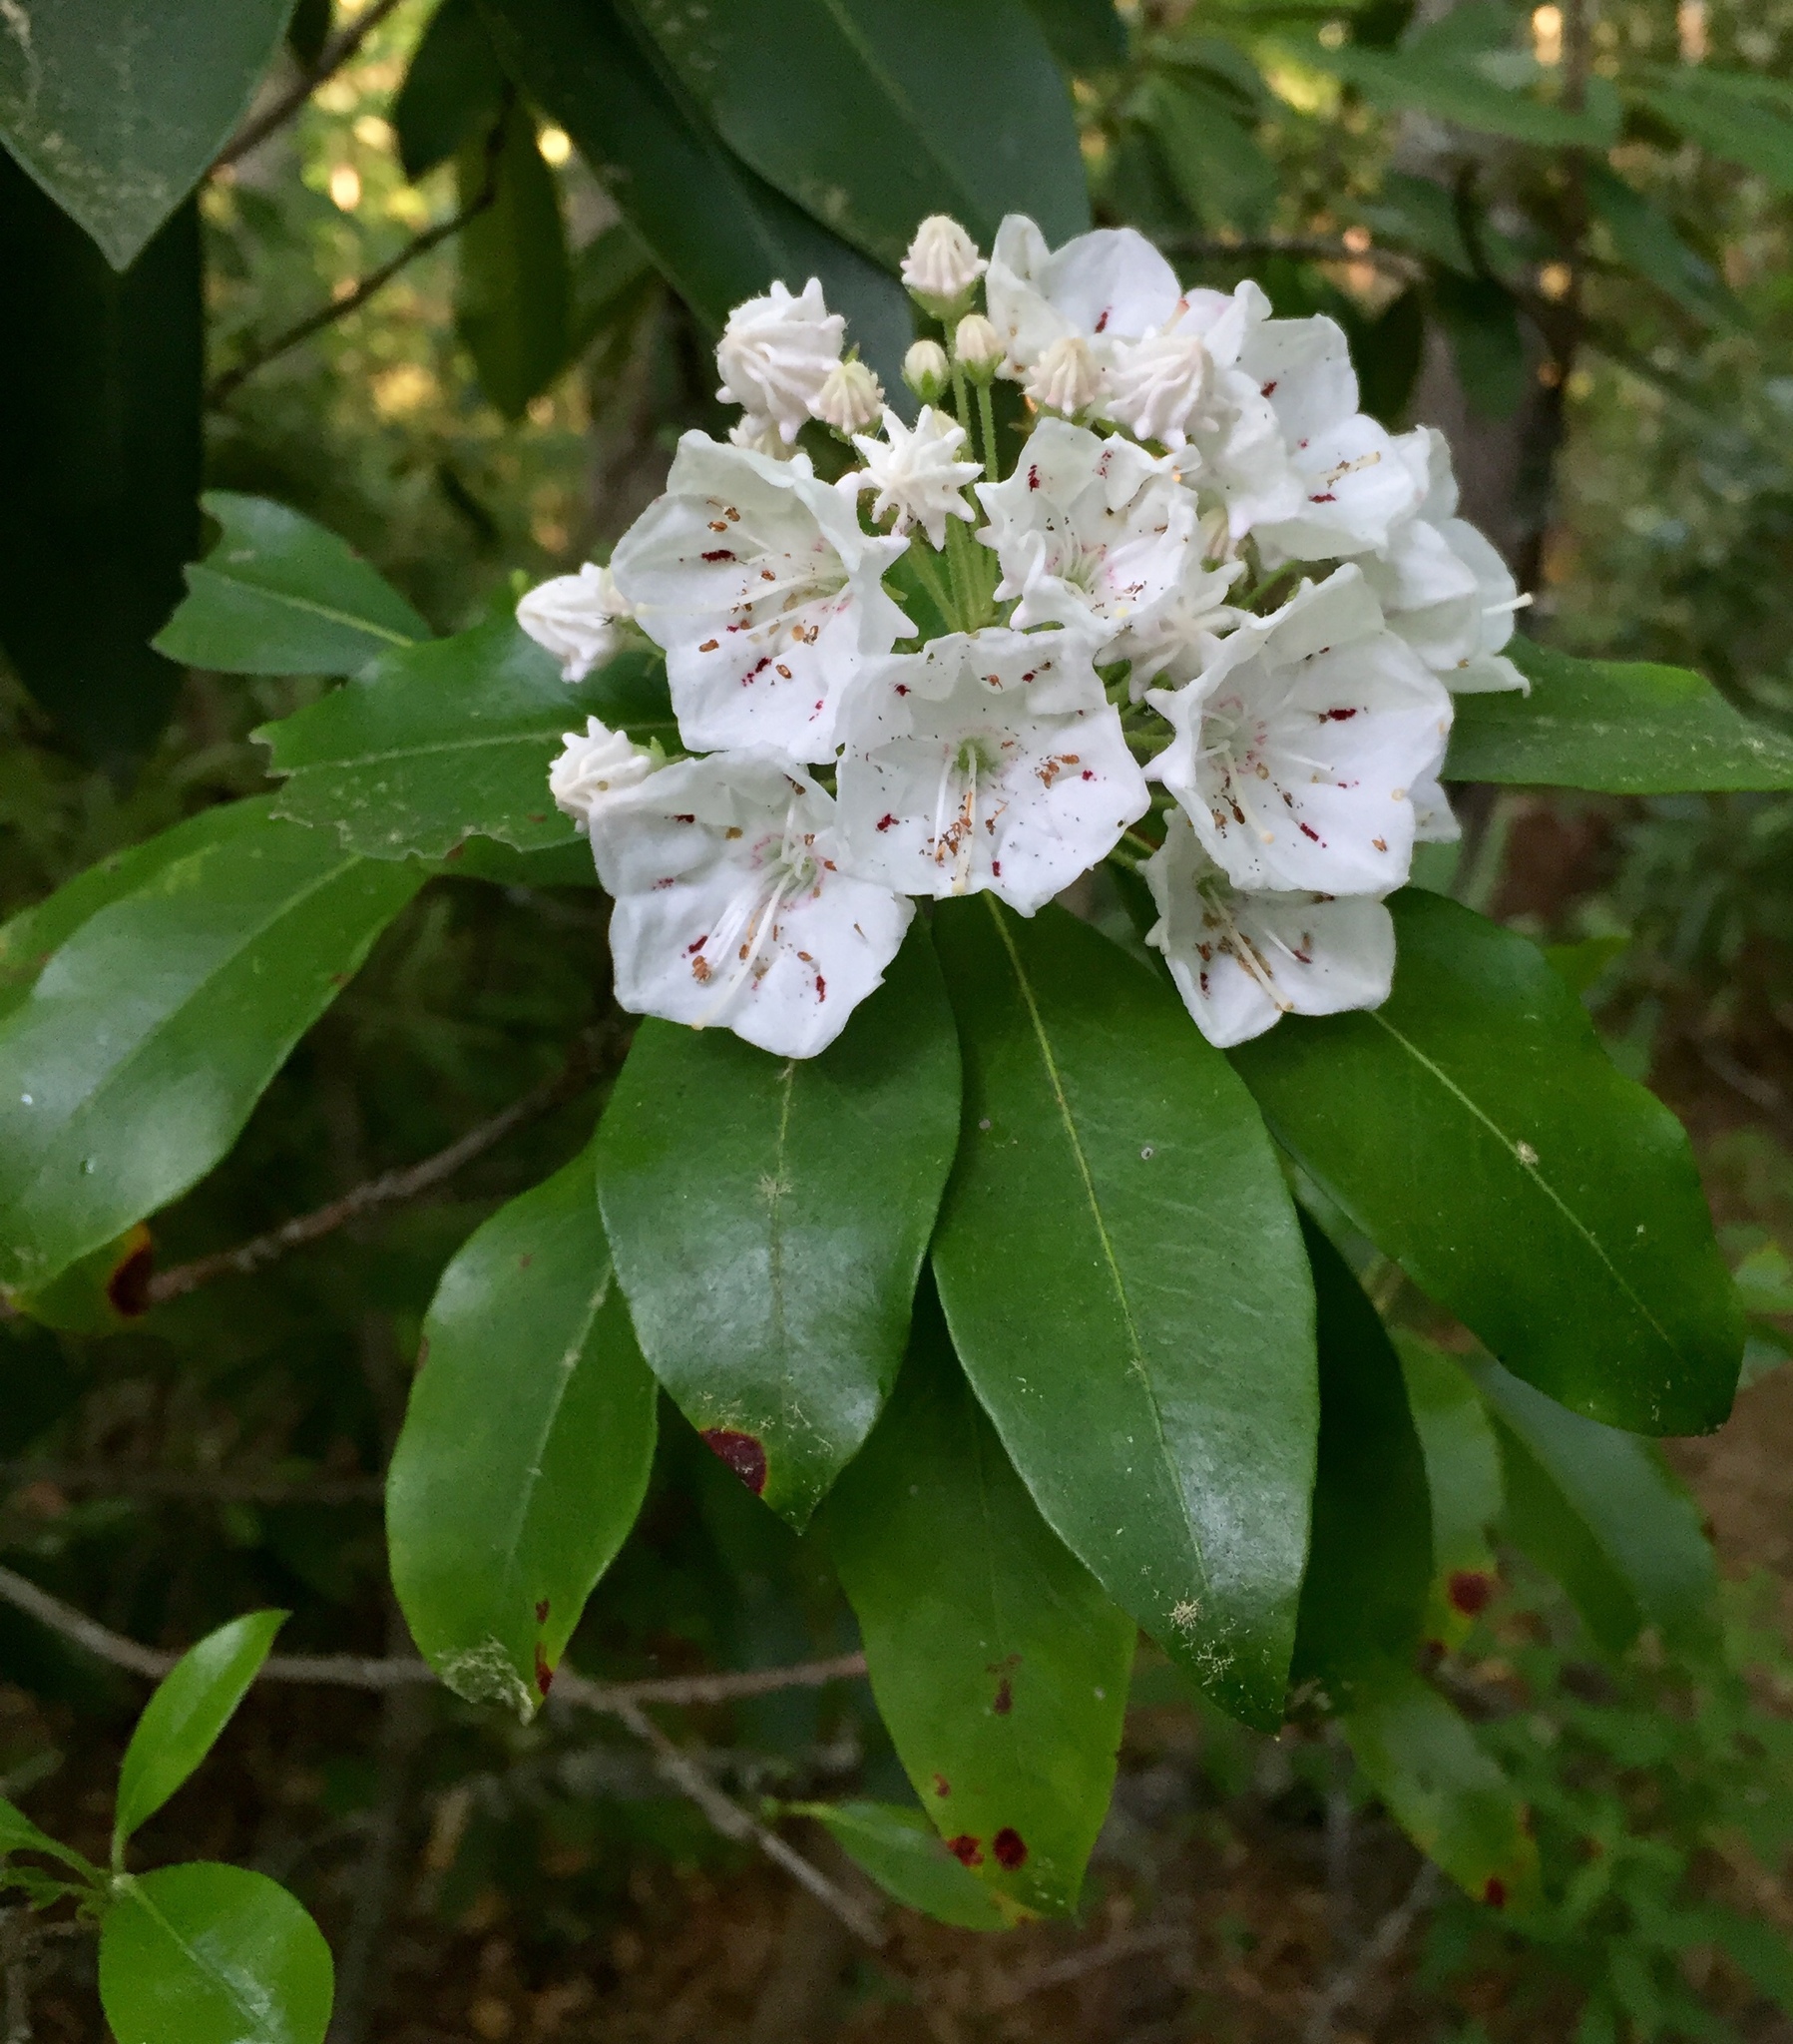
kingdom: Plantae
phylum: Tracheophyta
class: Magnoliopsida
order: Ericales
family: Ericaceae
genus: Kalmia
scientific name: Kalmia latifolia
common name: Mountain-laurel
